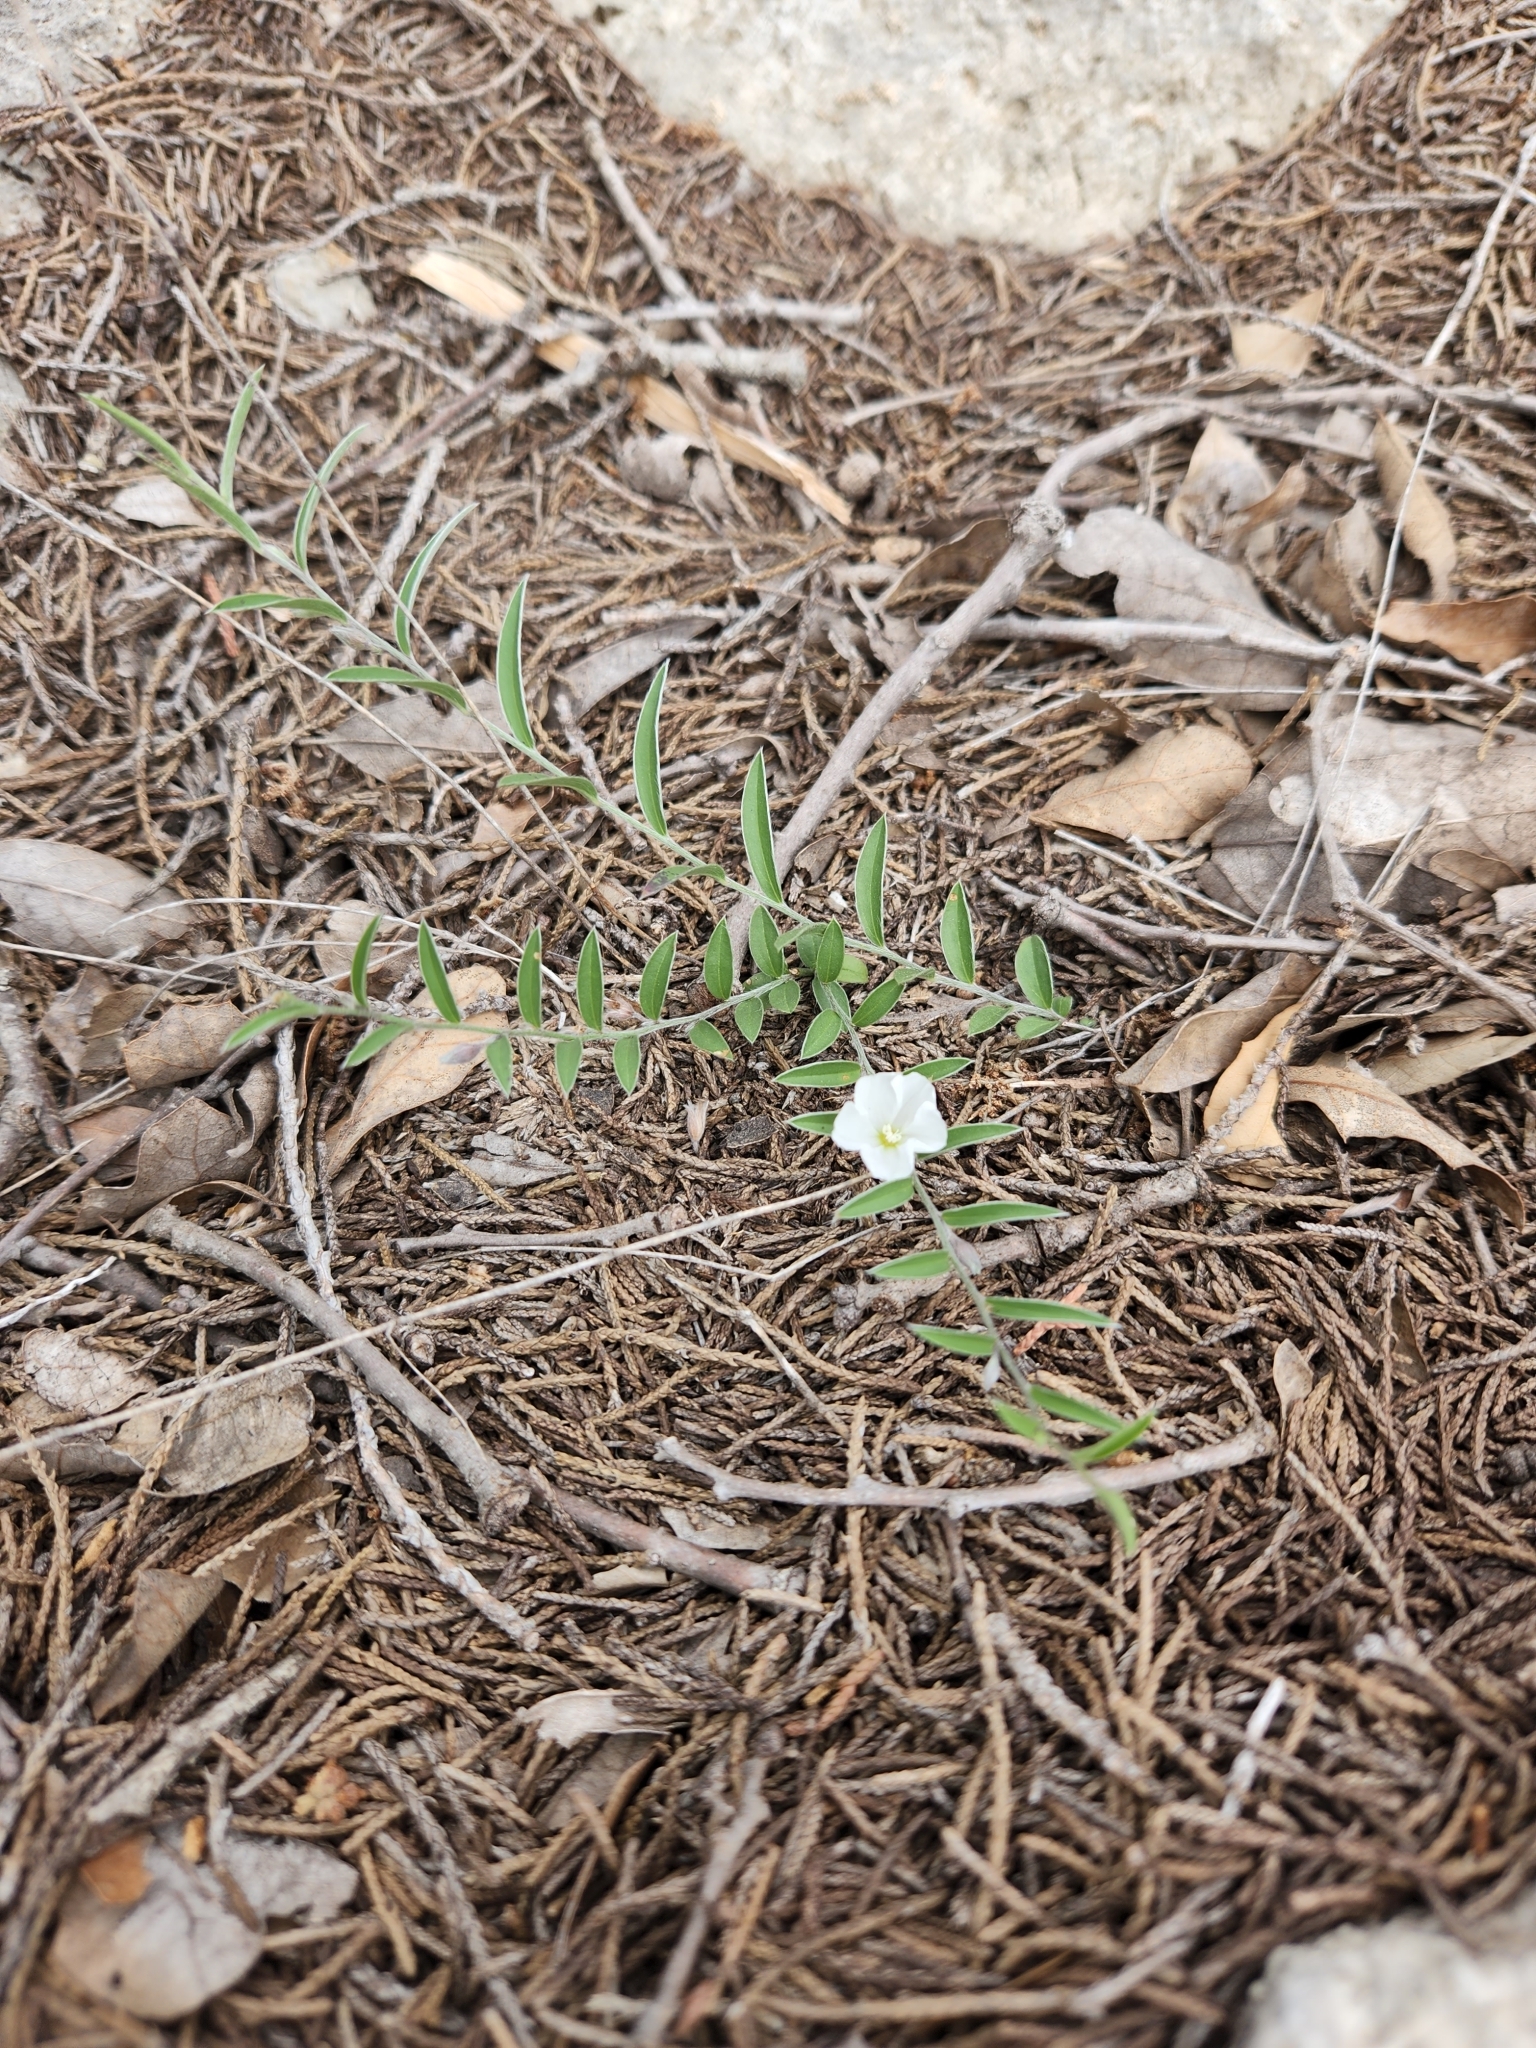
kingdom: Plantae
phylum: Tracheophyta
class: Magnoliopsida
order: Solanales
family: Convolvulaceae
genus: Evolvulus
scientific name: Evolvulus sericeus
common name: Blue dots
